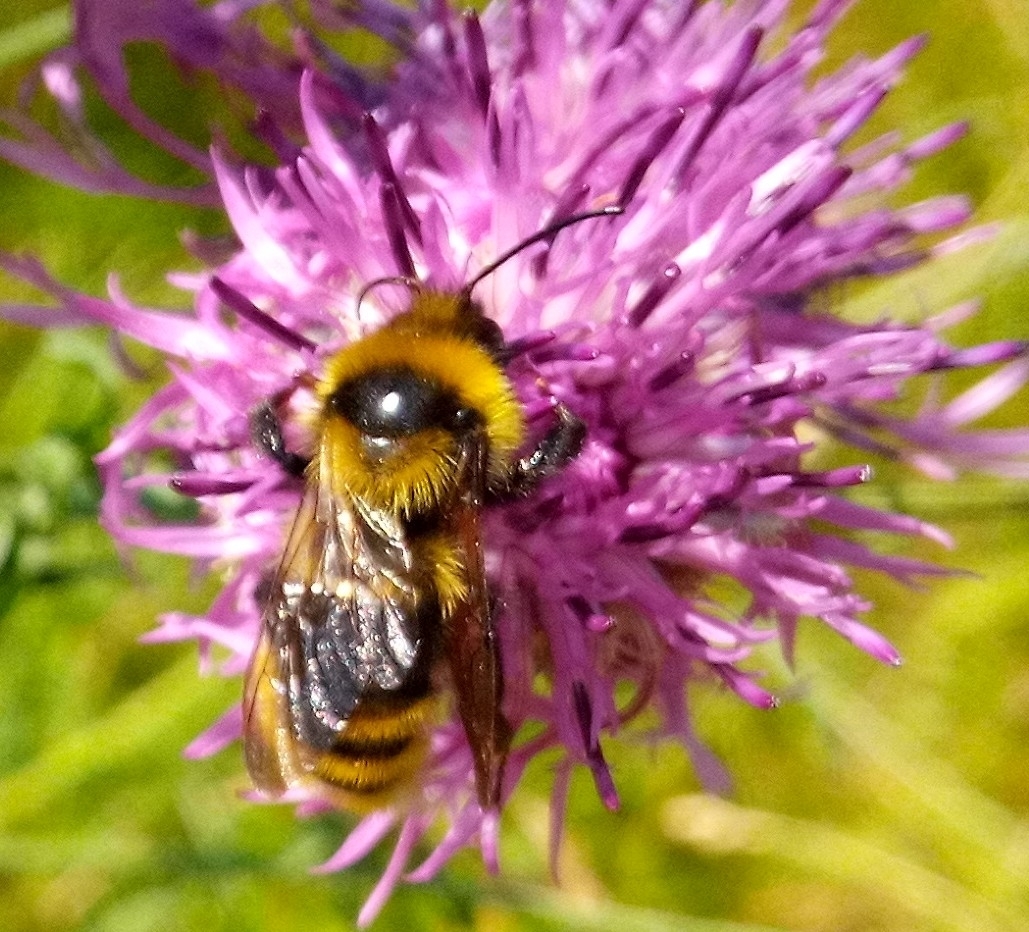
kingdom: Animalia
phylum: Arthropoda
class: Insecta
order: Hymenoptera
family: Apidae
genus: Bombus
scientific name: Bombus campestris
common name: Field cuckoo-bee
